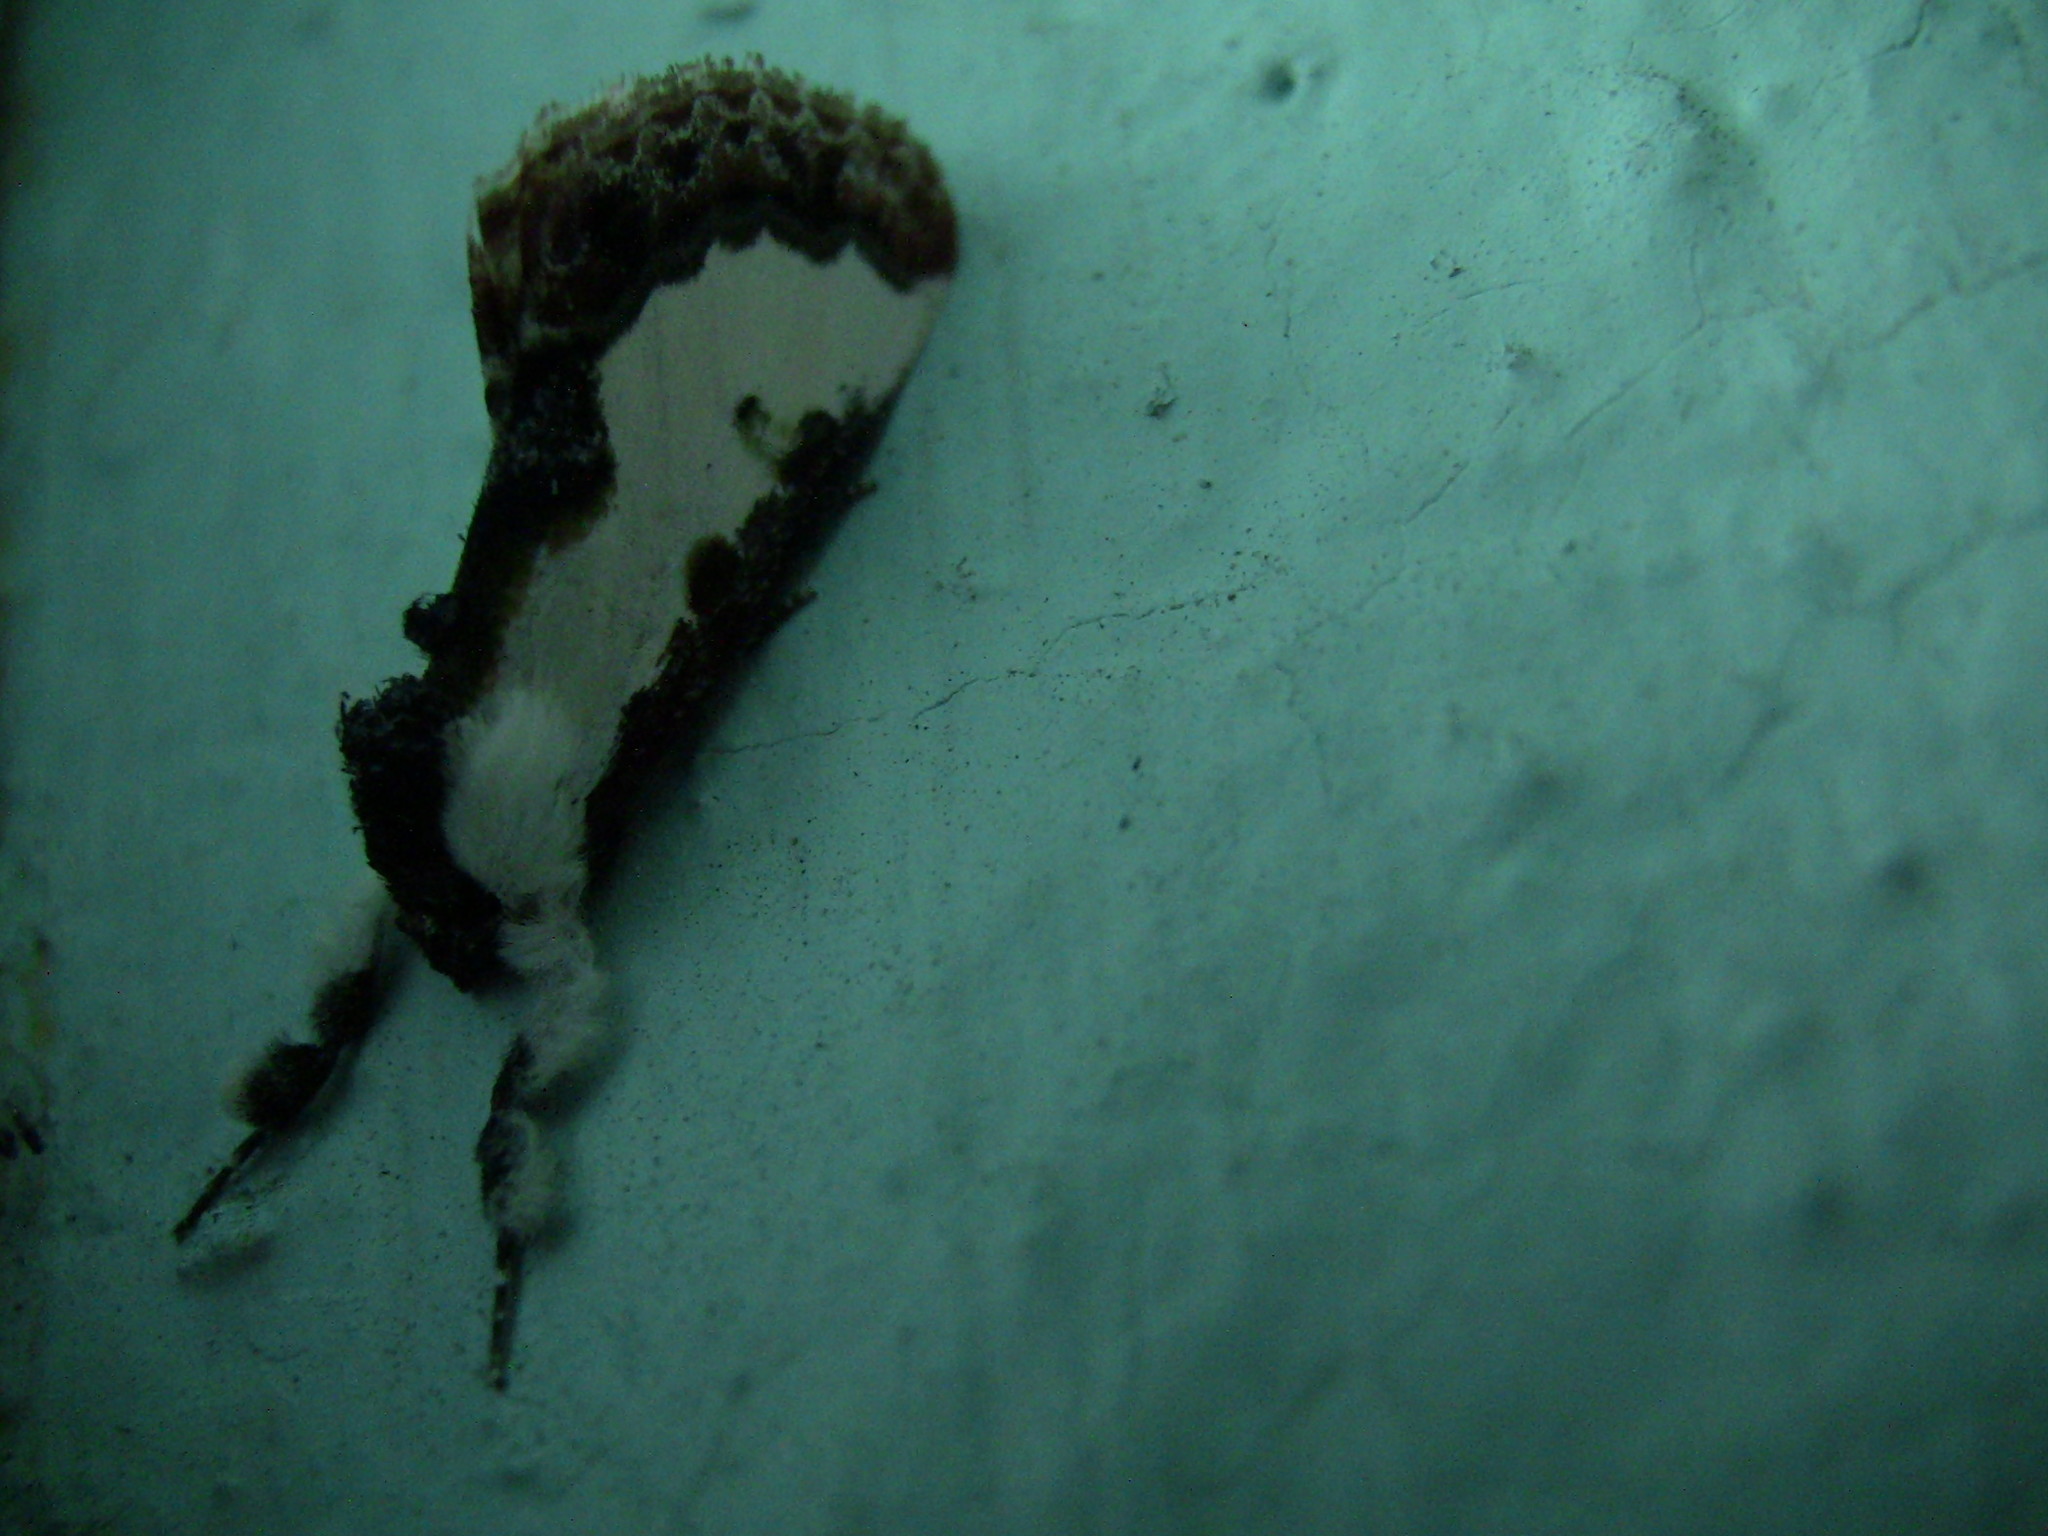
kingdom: Animalia
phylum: Arthropoda
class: Insecta
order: Lepidoptera
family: Noctuidae
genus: Eudryas
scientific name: Eudryas unio
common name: Pearly wood-nymph
